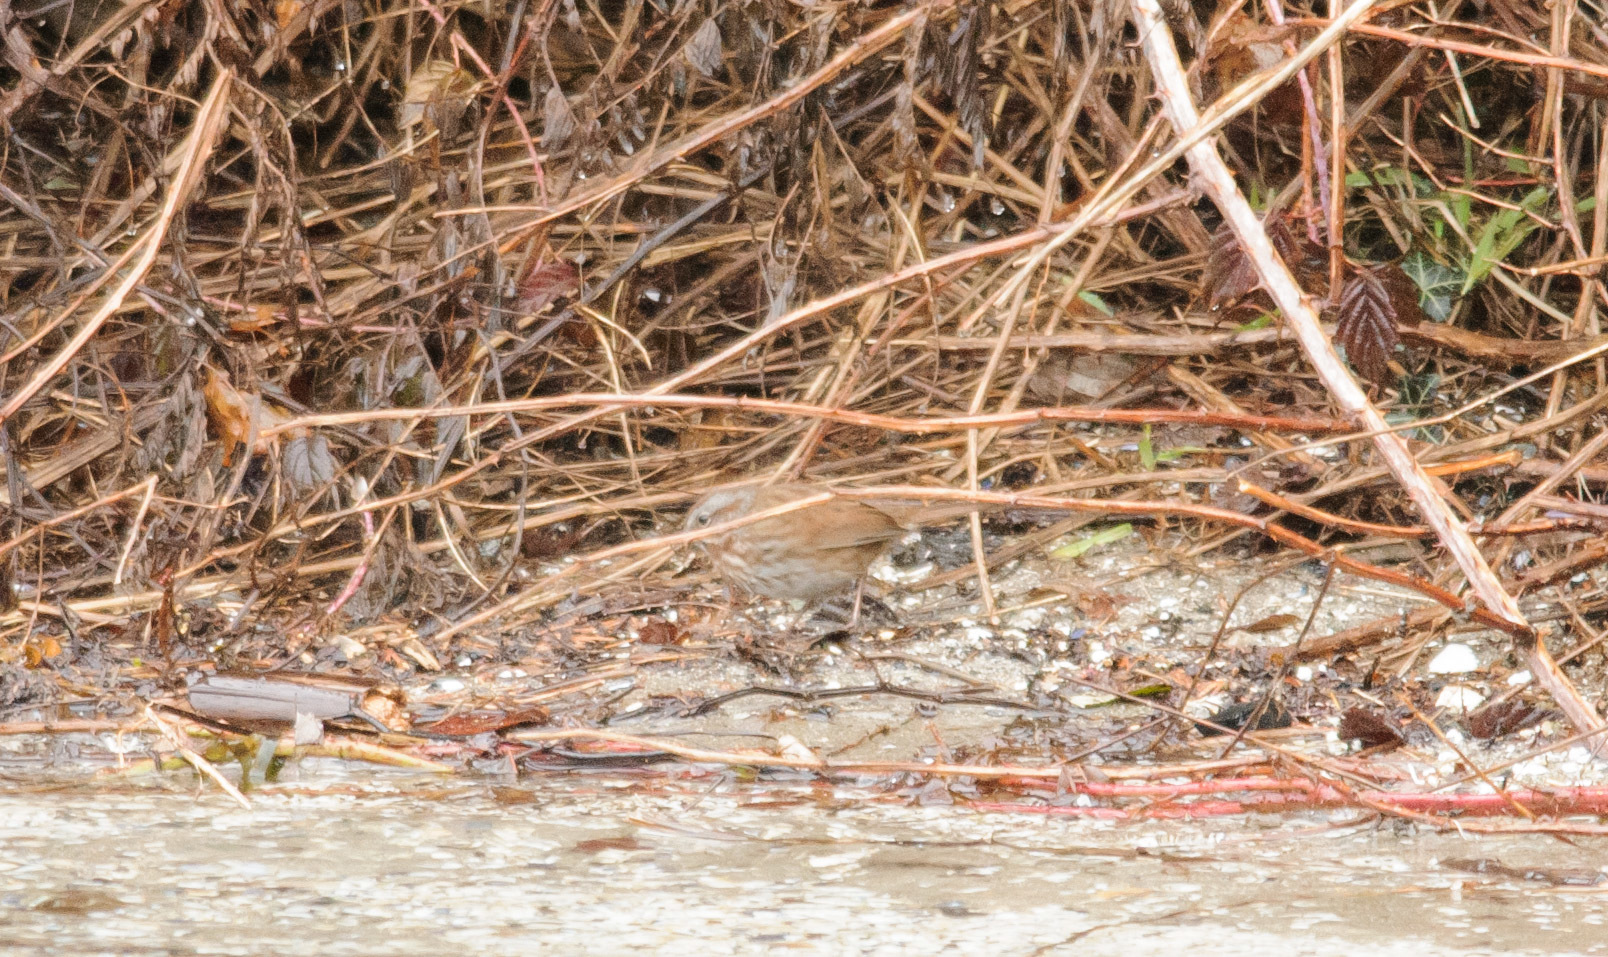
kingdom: Animalia
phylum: Chordata
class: Aves
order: Passeriformes
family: Passerellidae
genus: Melospiza
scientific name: Melospiza melodia
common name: Song sparrow
